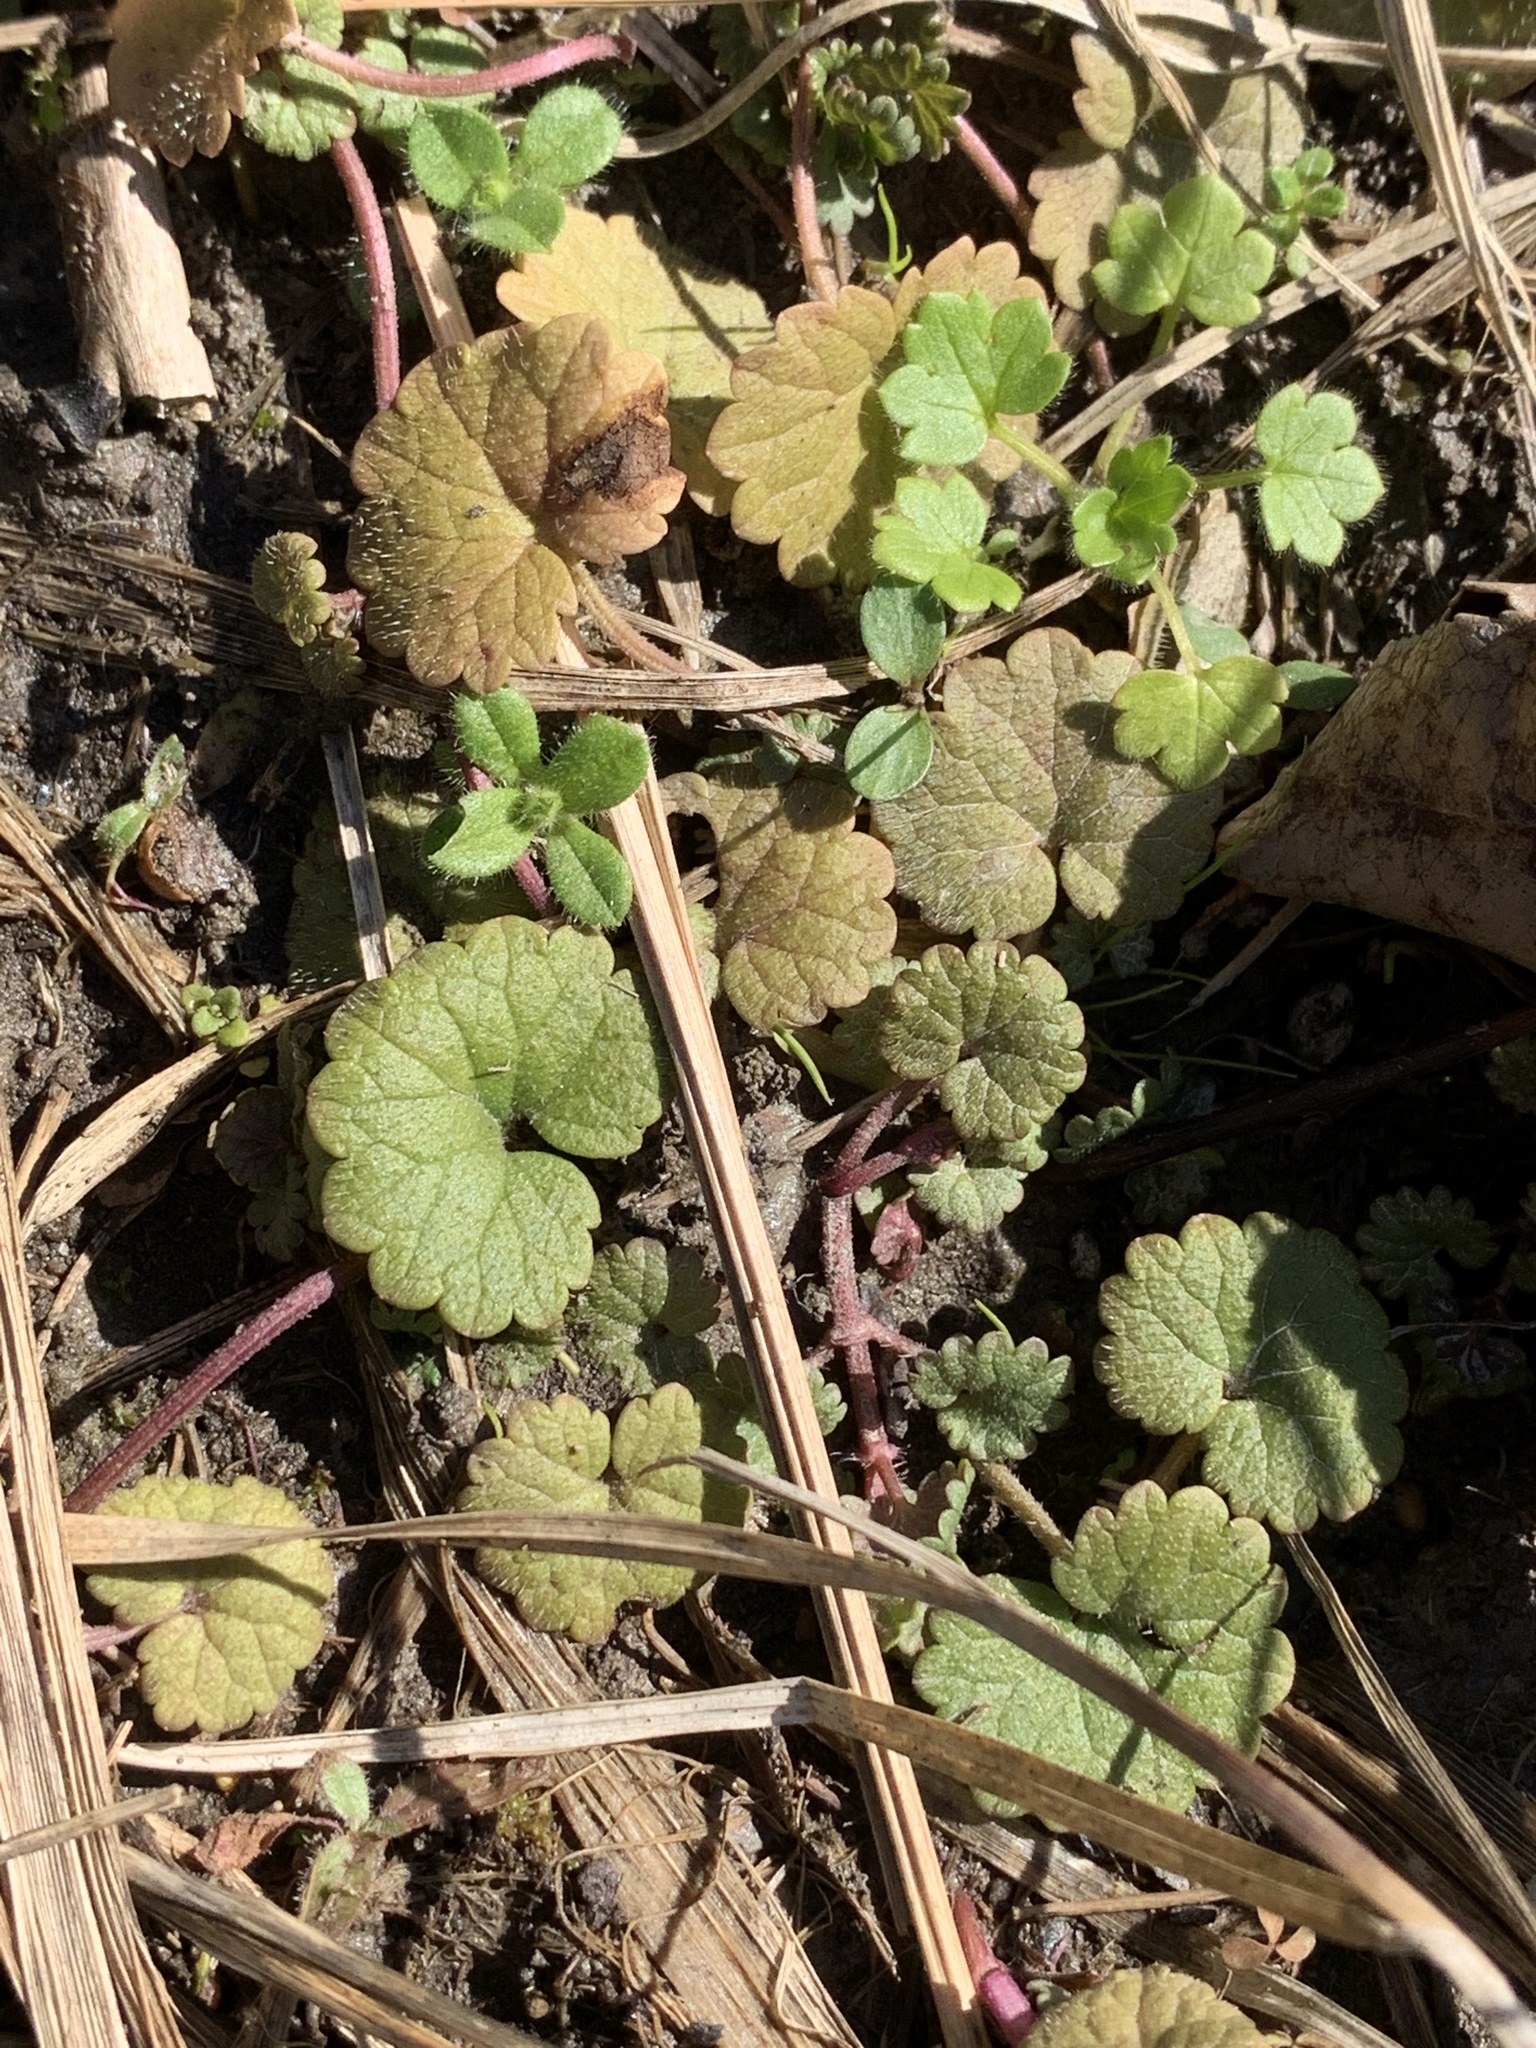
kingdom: Plantae
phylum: Tracheophyta
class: Magnoliopsida
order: Lamiales
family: Lamiaceae
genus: Glechoma
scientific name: Glechoma hederacea
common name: Ground ivy
